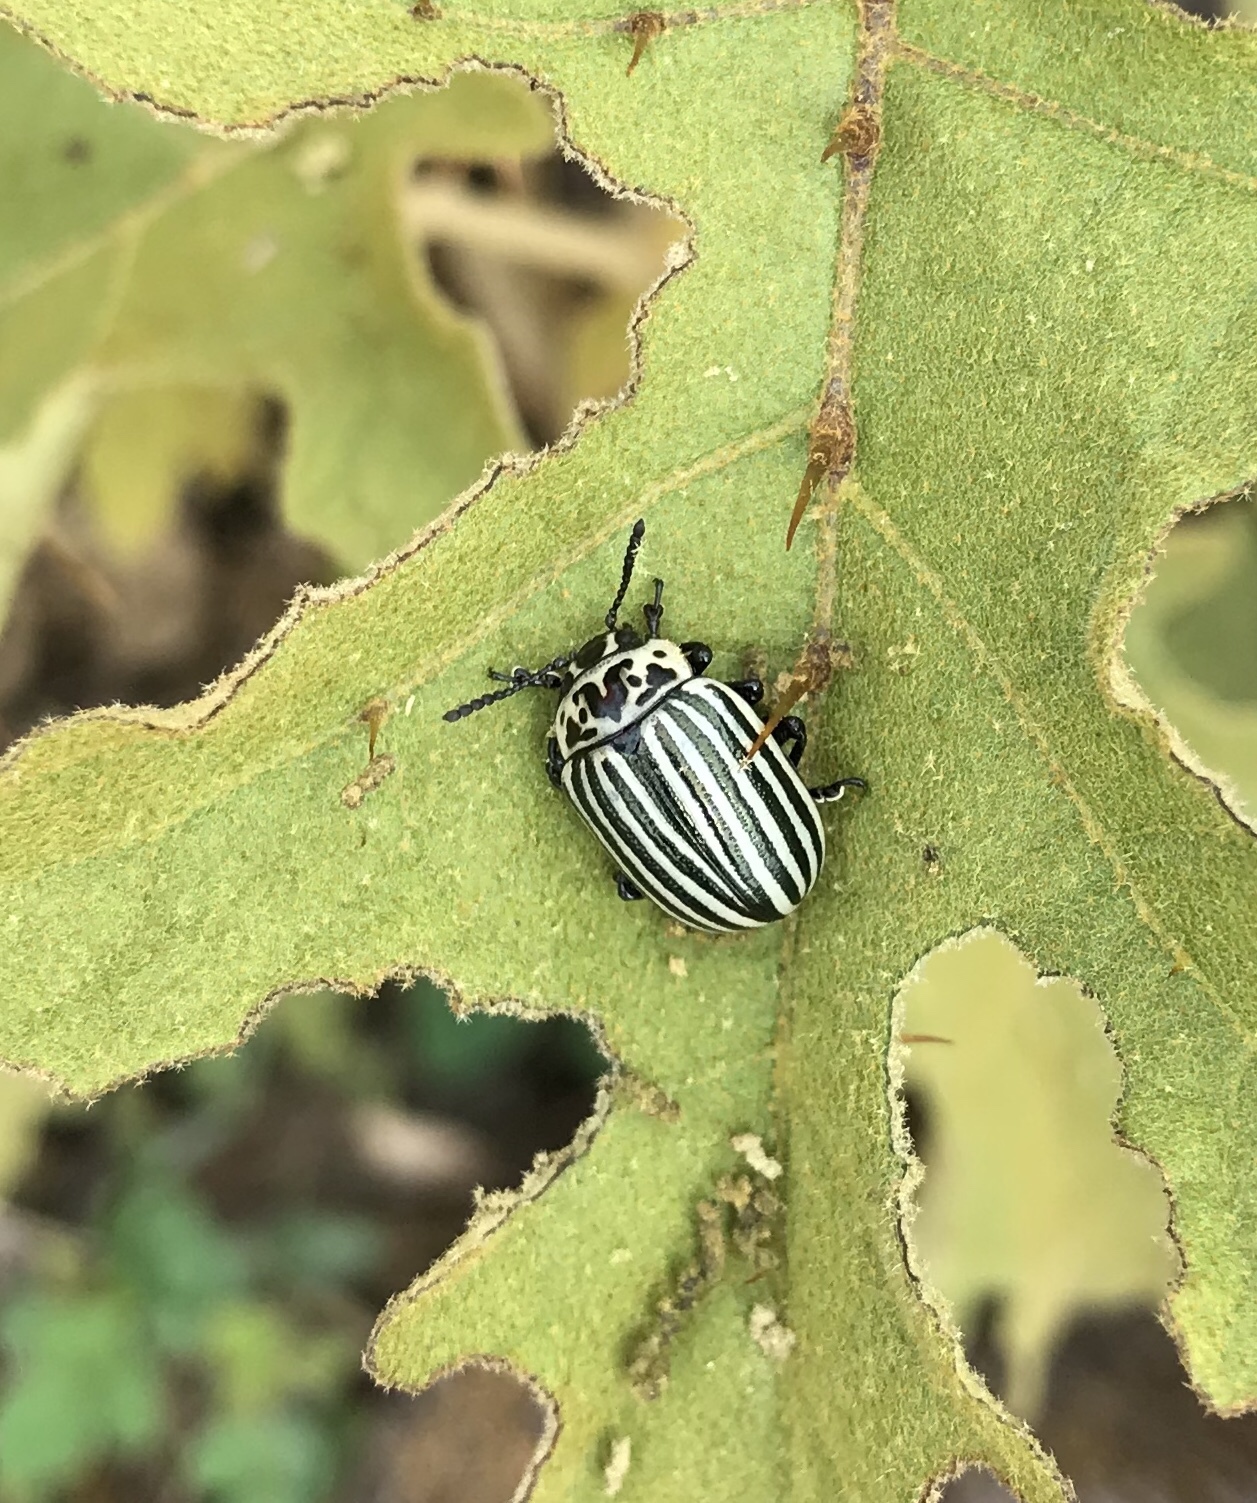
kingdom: Animalia
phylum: Arthropoda
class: Insecta
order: Coleoptera
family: Chrysomelidae
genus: Leptinotarsa
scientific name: Leptinotarsa
